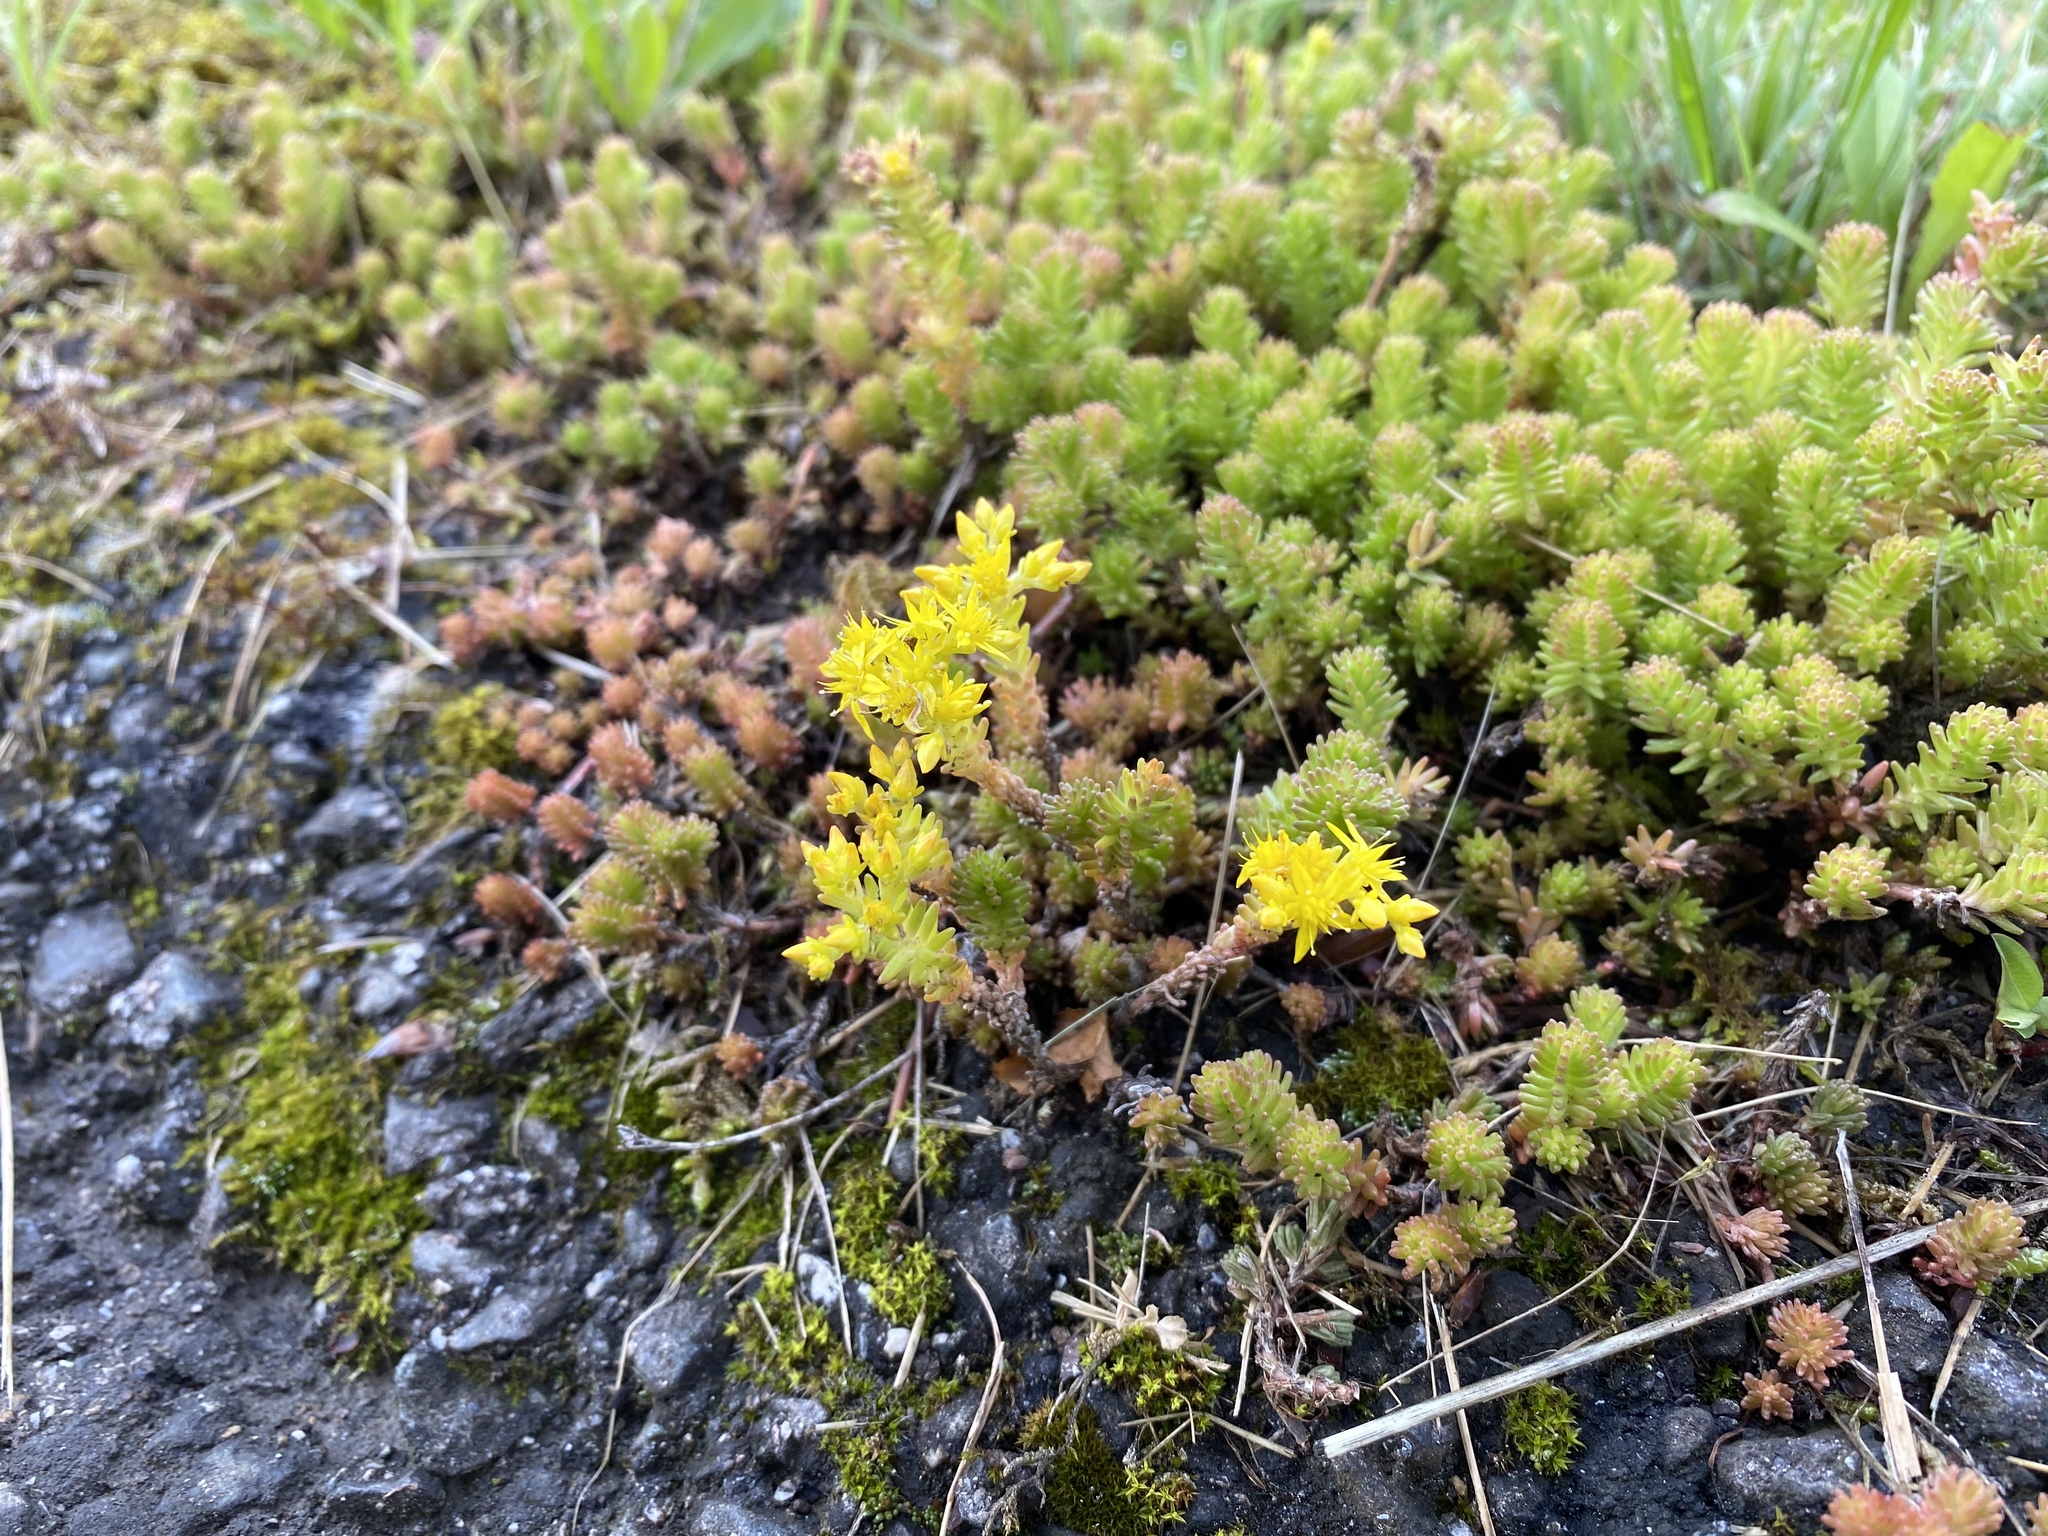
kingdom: Plantae
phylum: Tracheophyta
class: Magnoliopsida
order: Saxifragales
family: Crassulaceae
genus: Sedum
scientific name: Sedum sexangulare
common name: Tasteless stonecrop
